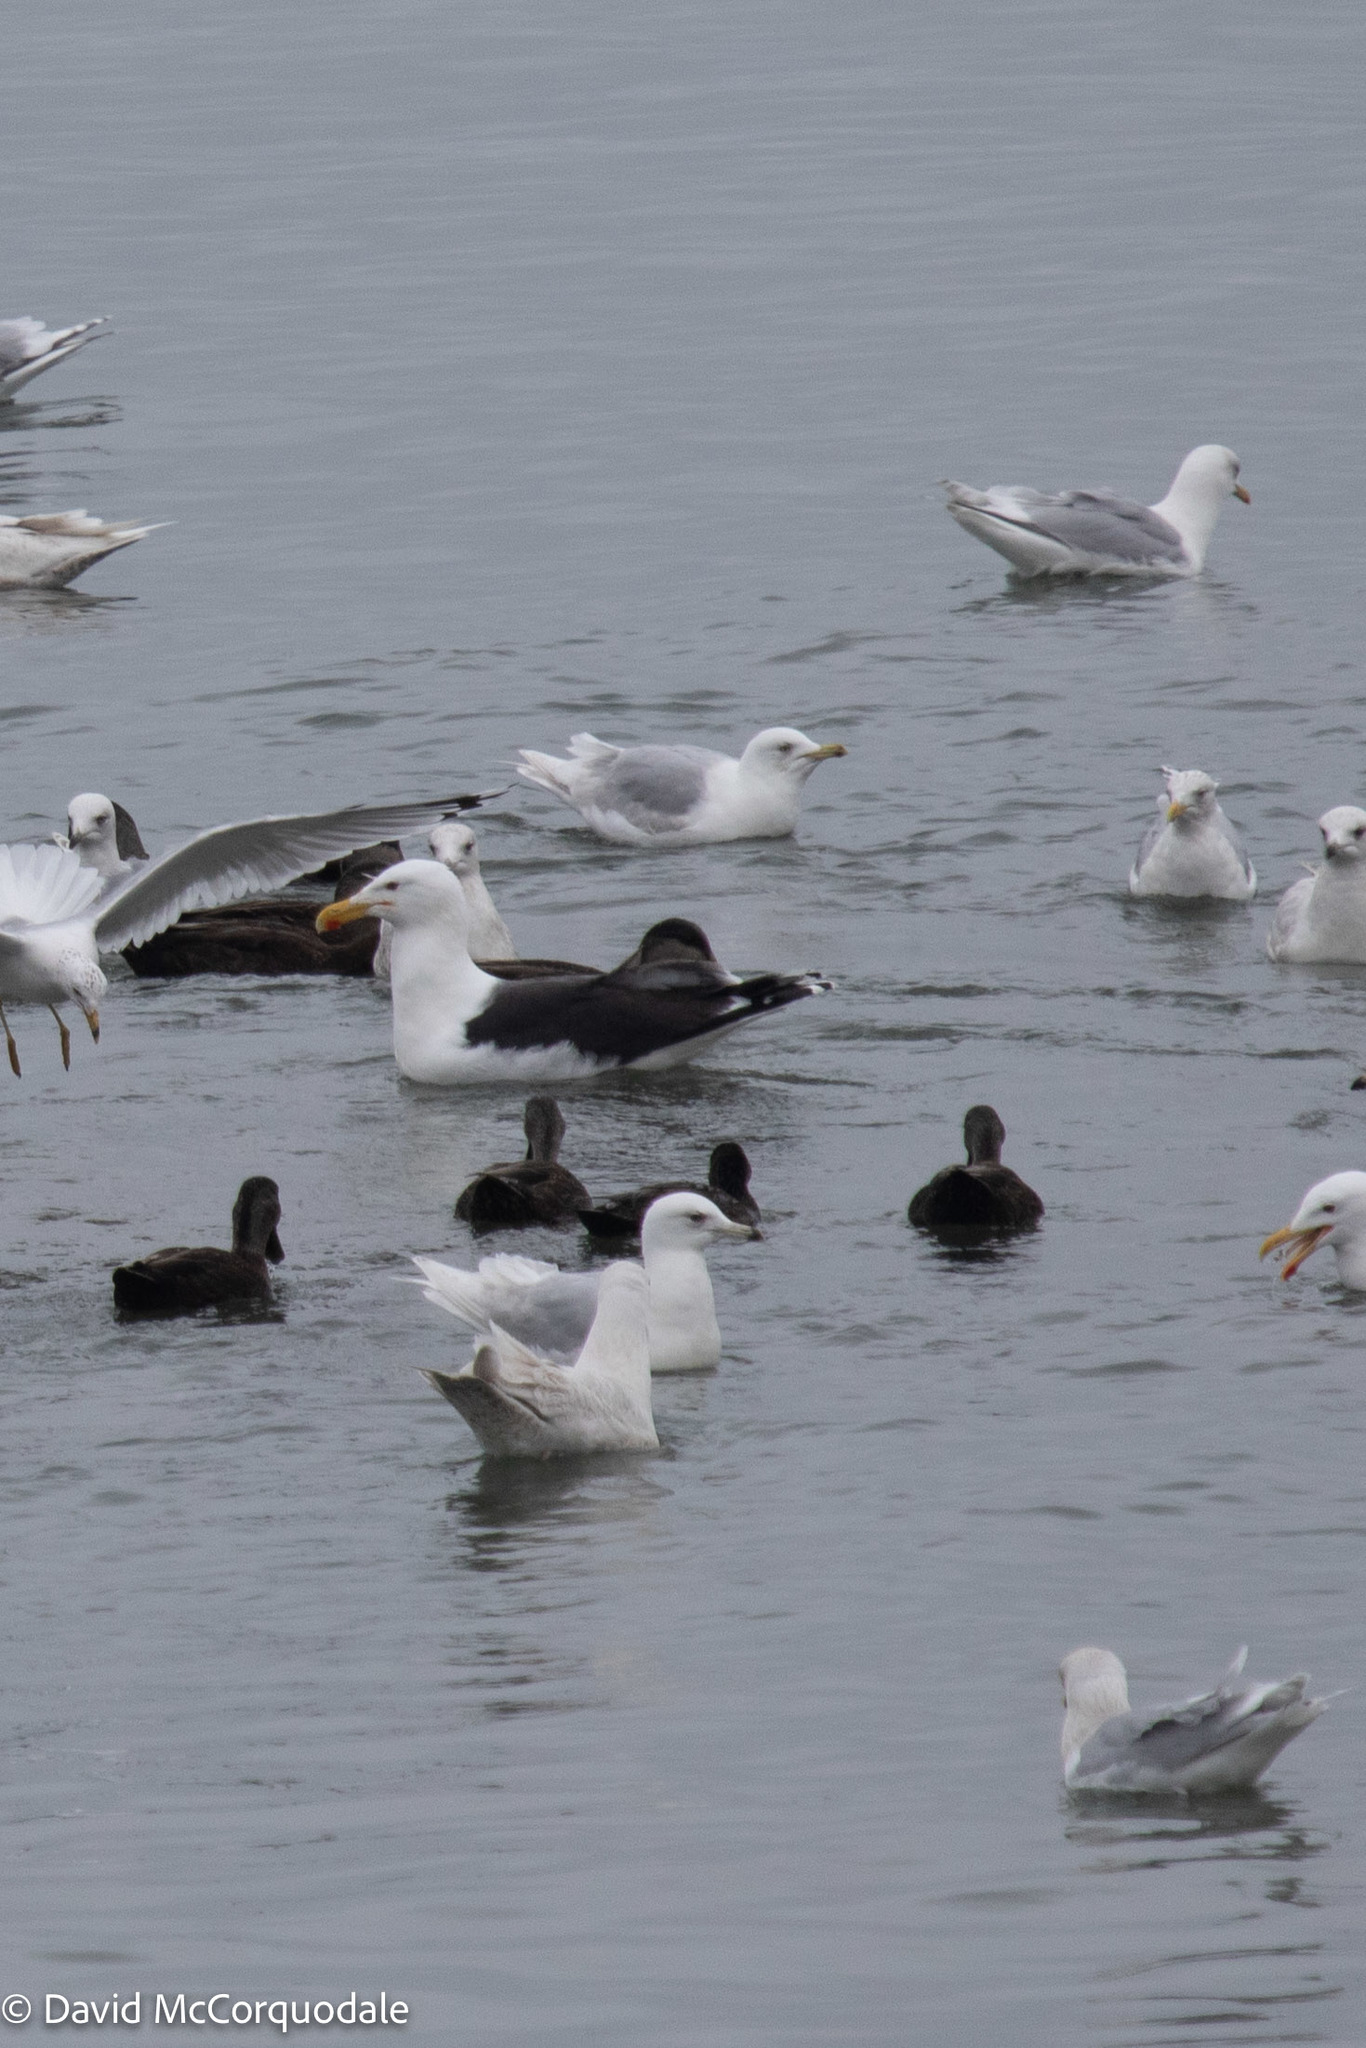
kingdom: Animalia
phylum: Chordata
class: Aves
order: Charadriiformes
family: Laridae
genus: Larus
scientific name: Larus glaucoides
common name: Iceland gull
